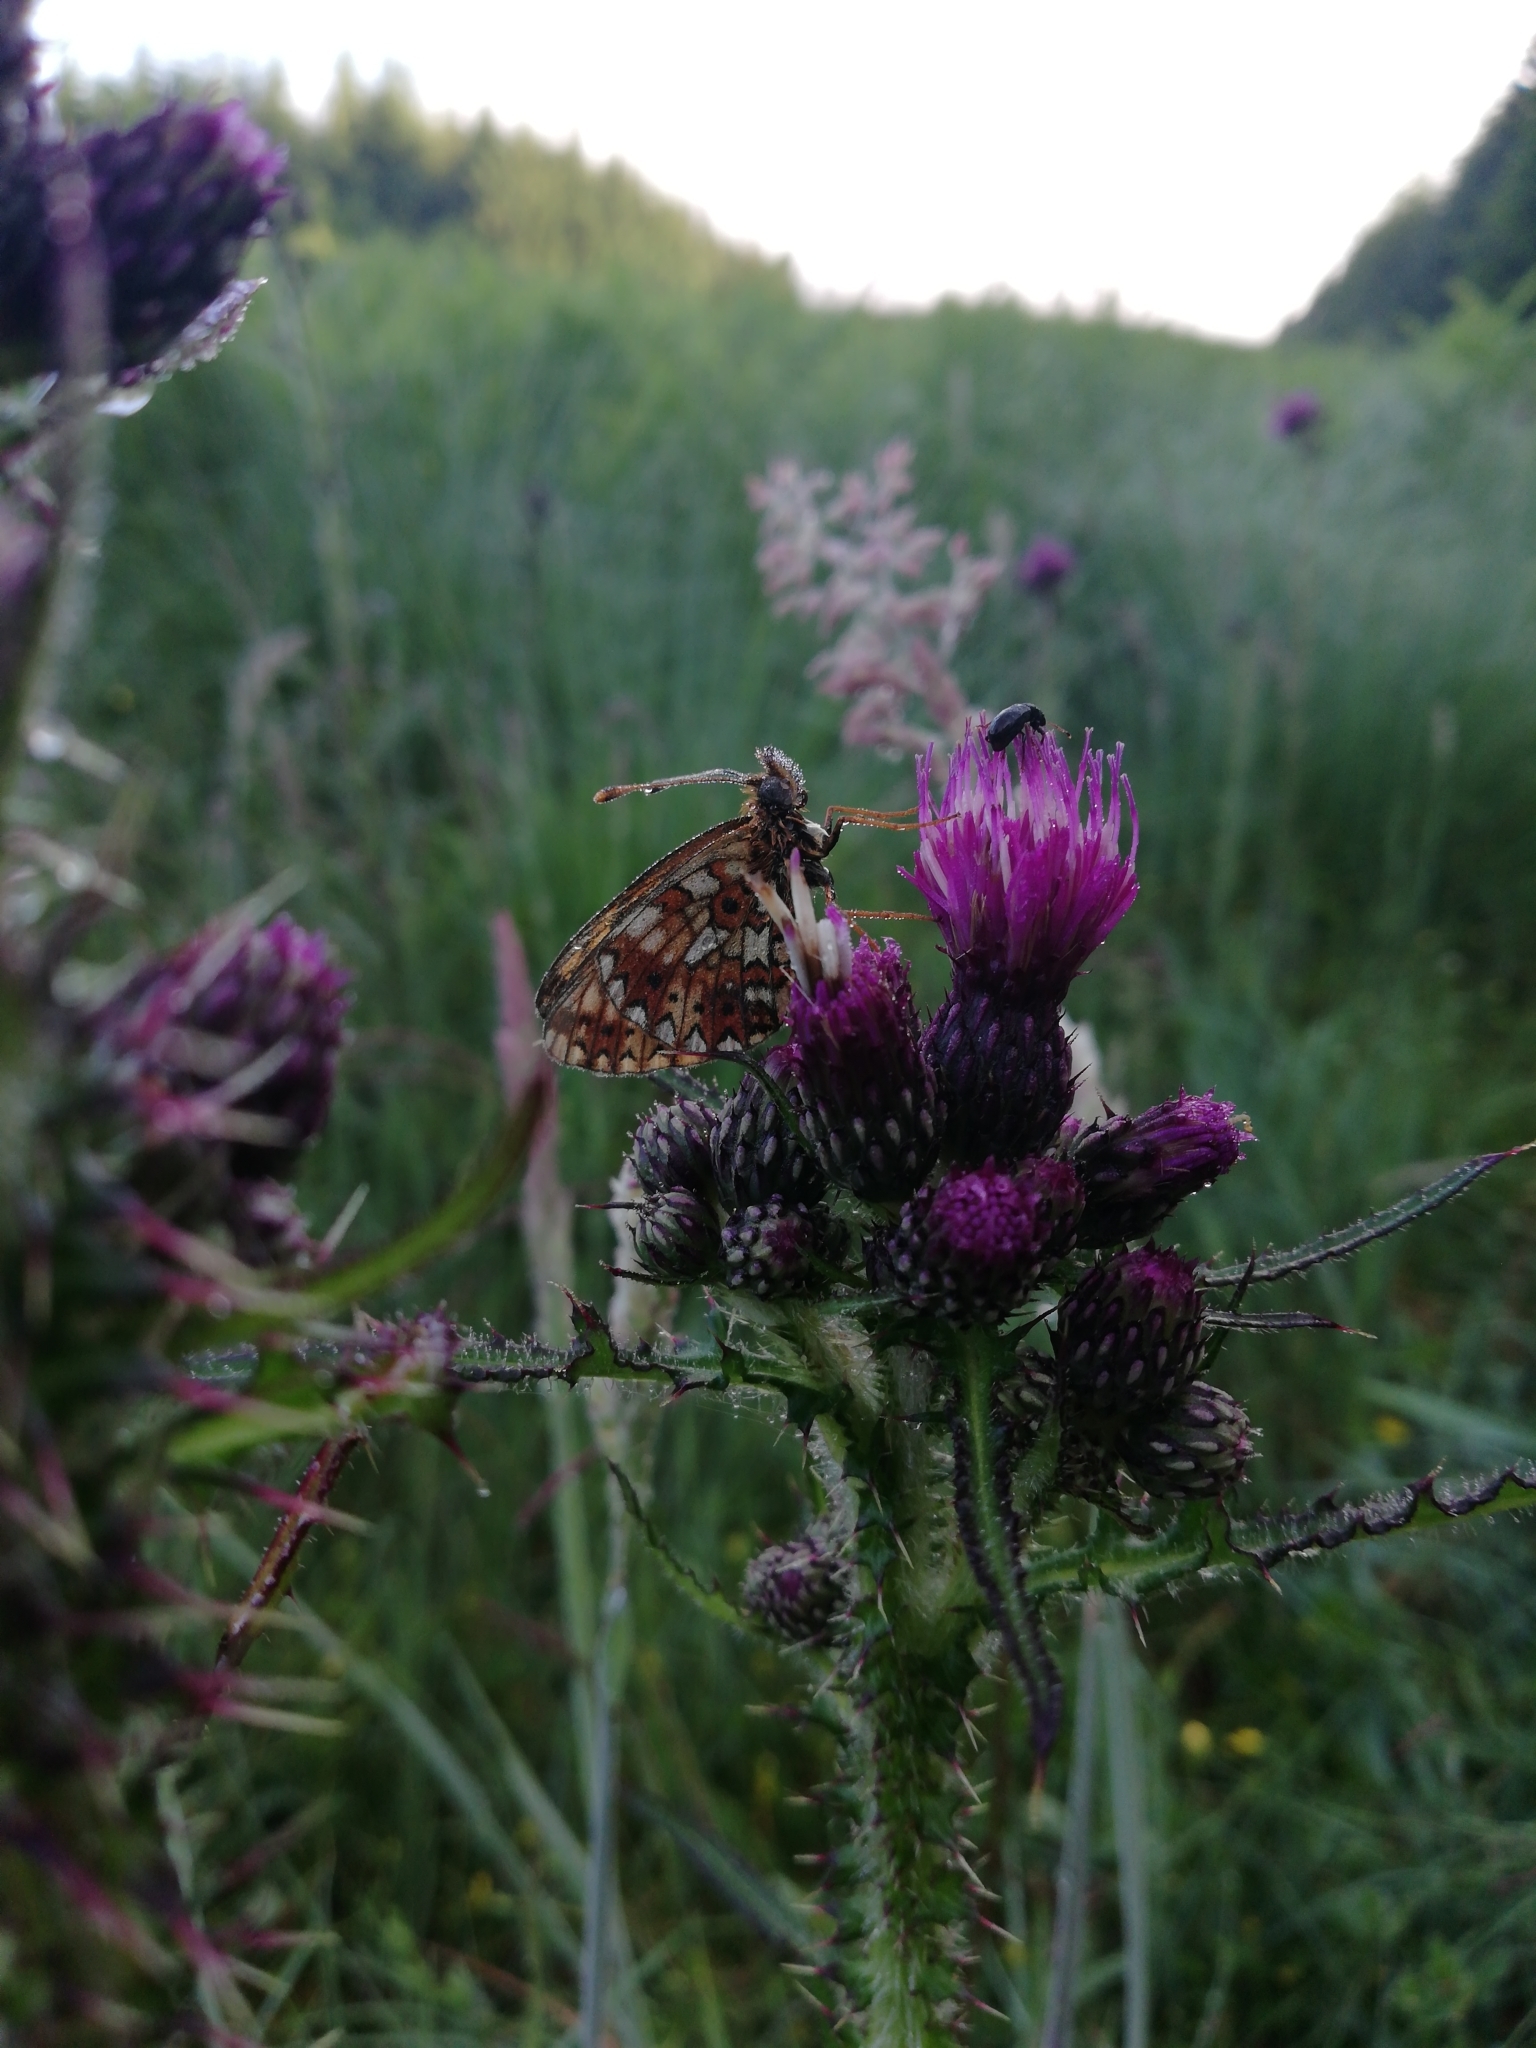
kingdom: Animalia
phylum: Arthropoda
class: Insecta
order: Lepidoptera
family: Nymphalidae
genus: Boloria
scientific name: Boloria selene
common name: Small pearl-bordered fritillary
